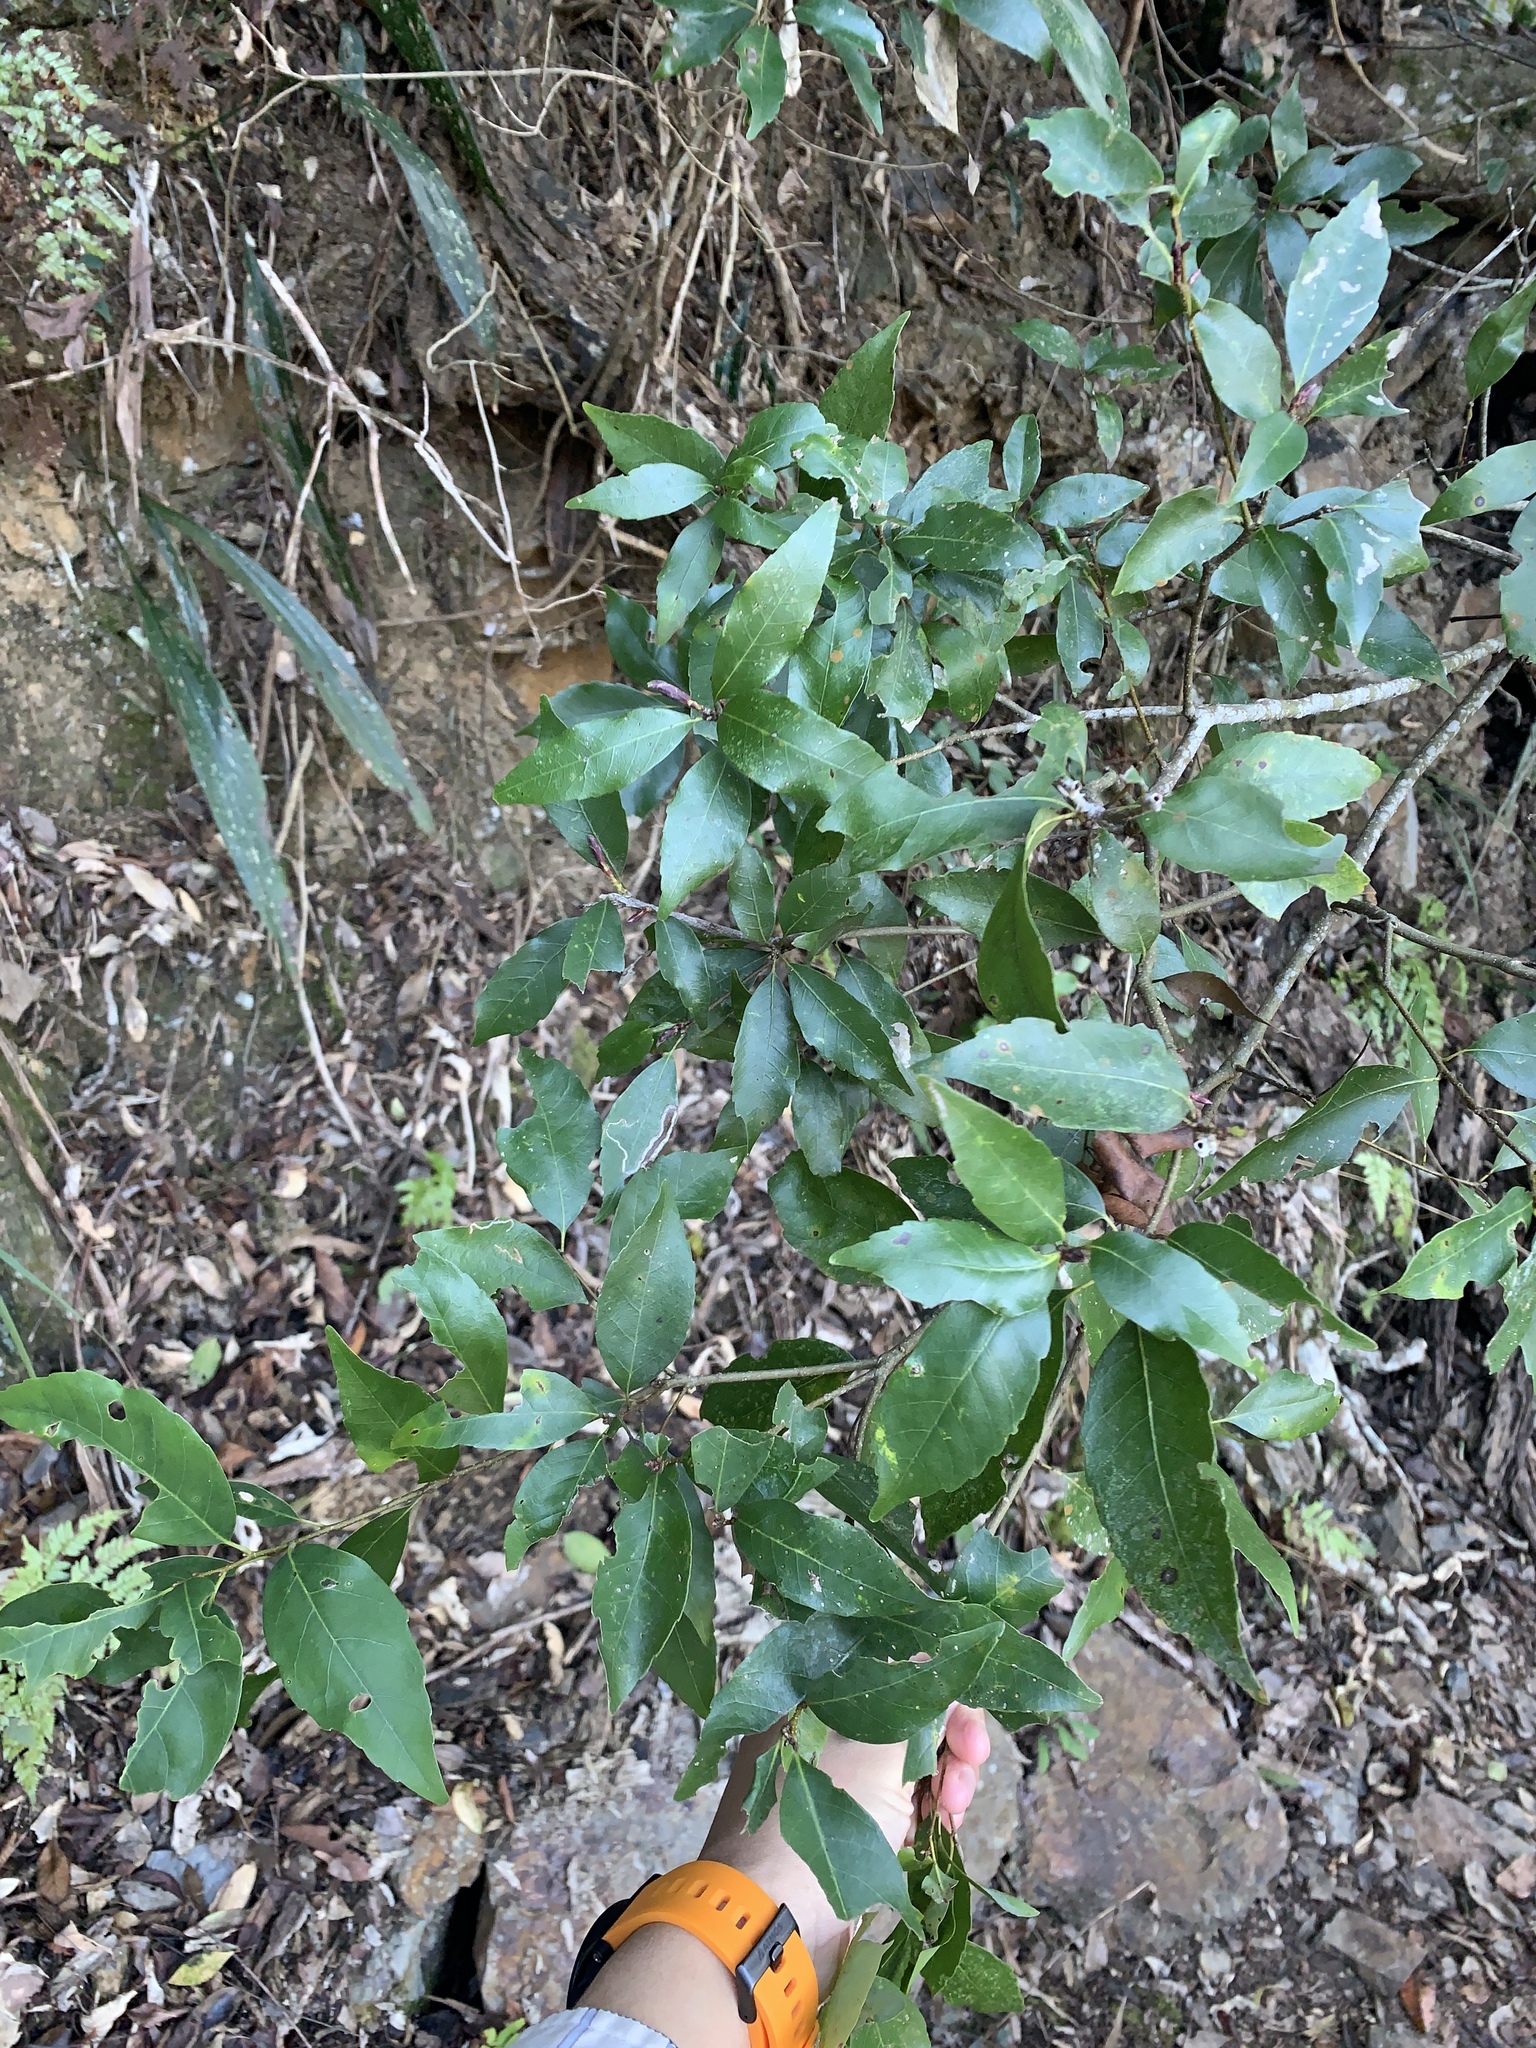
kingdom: Plantae
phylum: Tracheophyta
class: Magnoliopsida
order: Fagales
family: Fagaceae
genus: Quercus
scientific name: Quercus glauca
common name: Ring-cup oak
